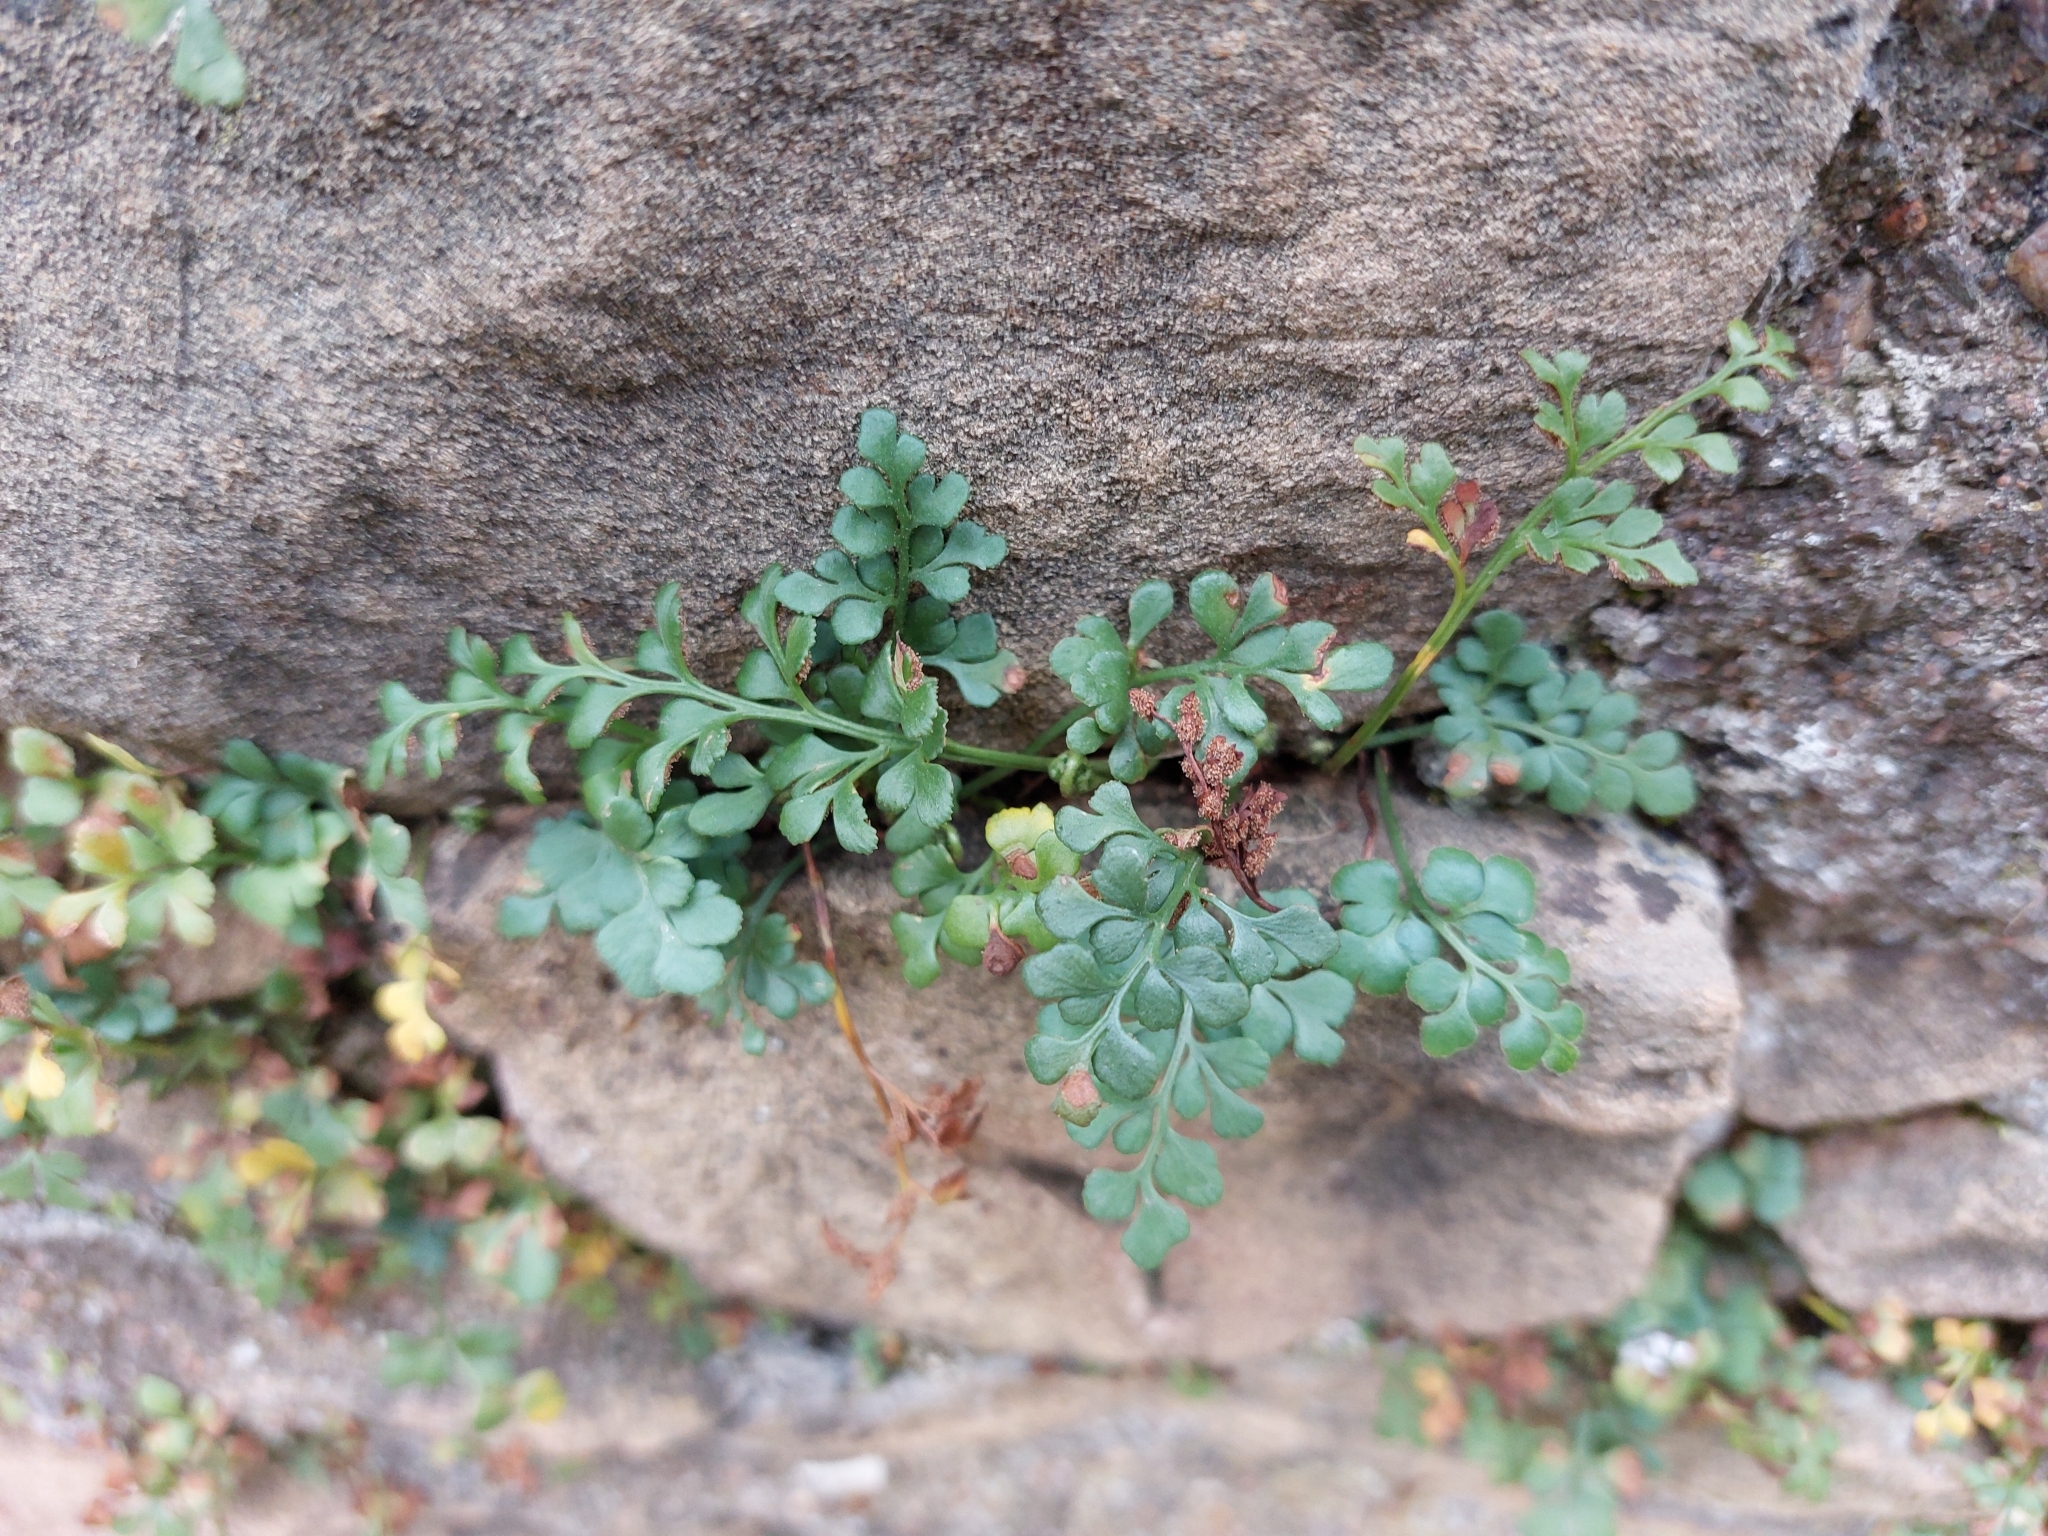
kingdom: Plantae
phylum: Tracheophyta
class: Polypodiopsida
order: Polypodiales
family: Aspleniaceae
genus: Asplenium
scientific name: Asplenium ruta-muraria
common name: Wall-rue
